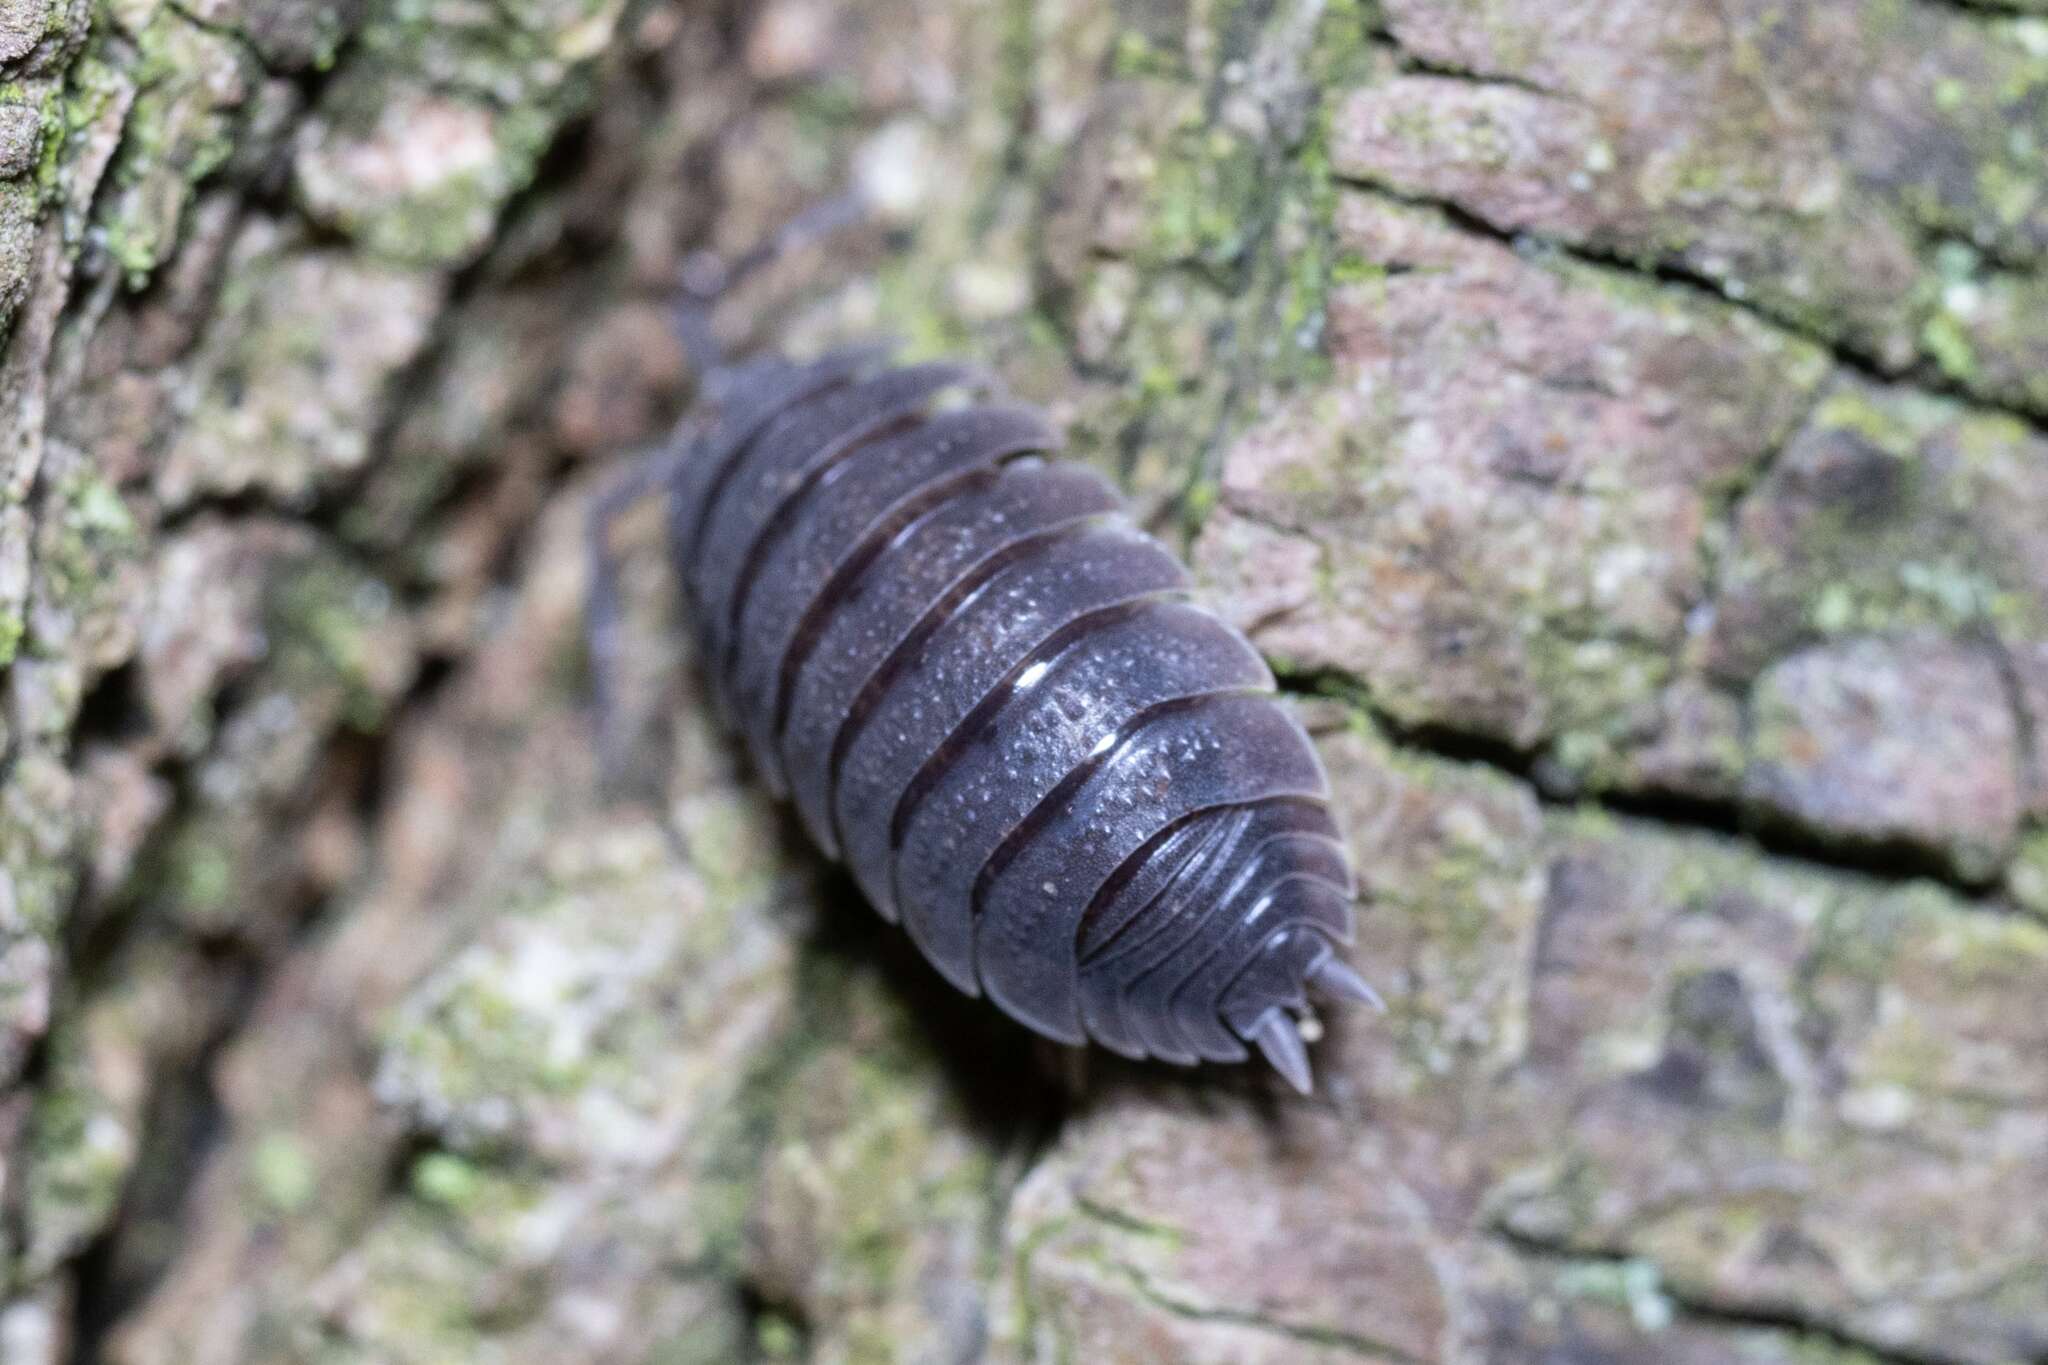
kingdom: Animalia
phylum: Arthropoda
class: Malacostraca
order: Isopoda
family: Porcellionidae
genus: Porcellio
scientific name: Porcellio scaber
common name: Common rough woodlouse
